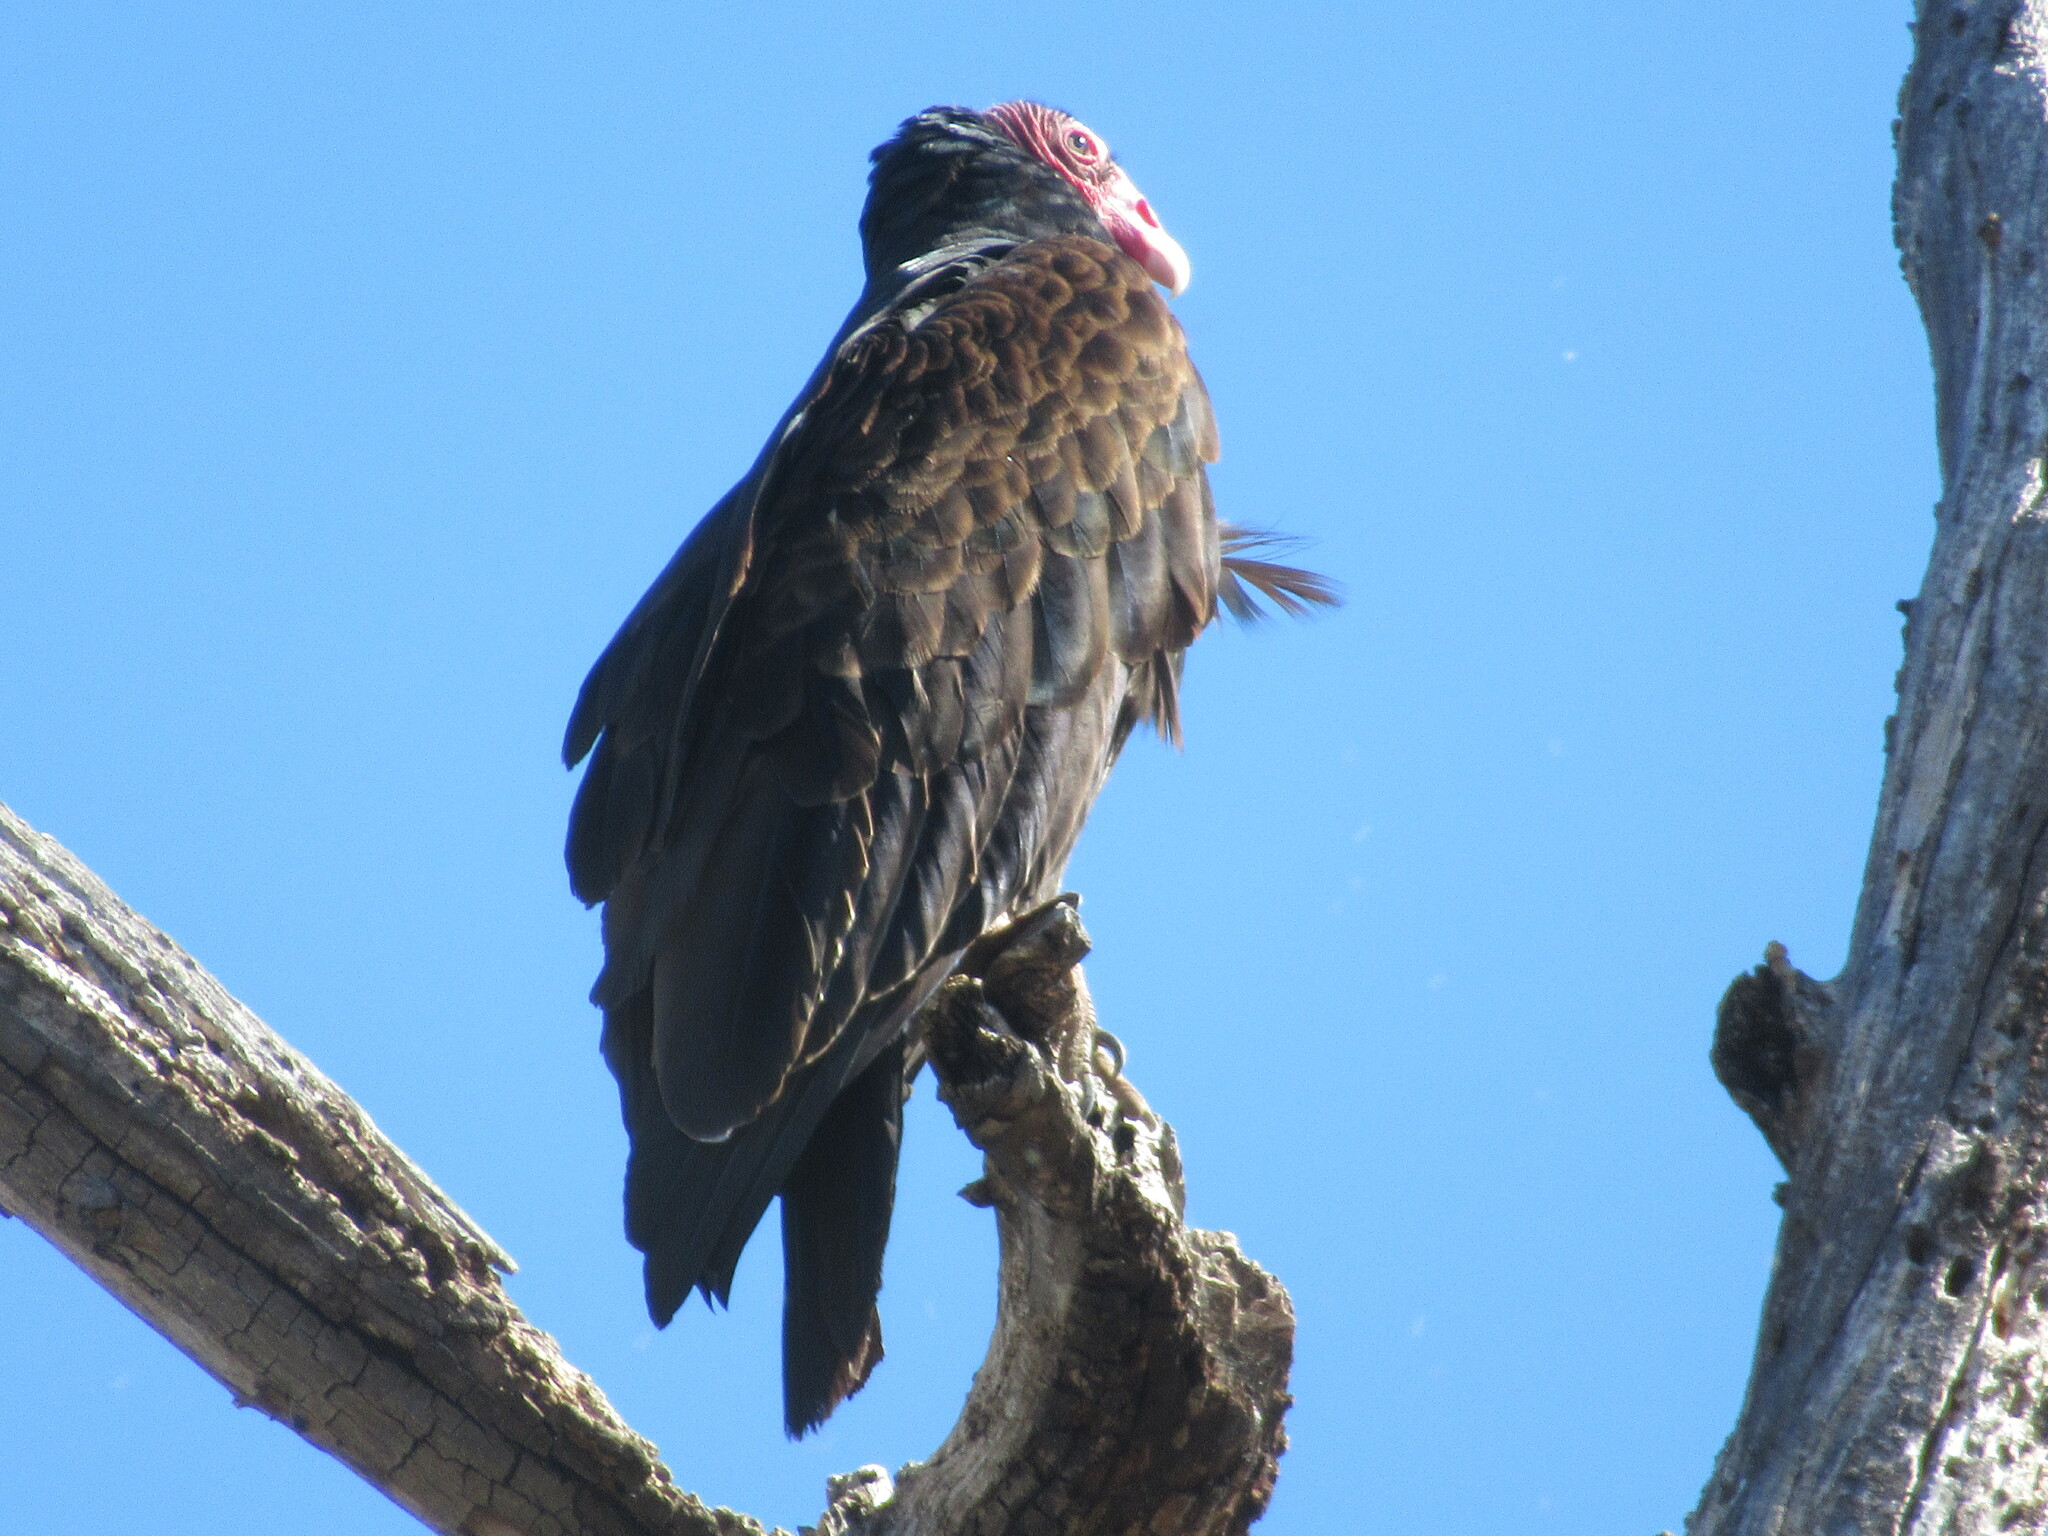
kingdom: Animalia
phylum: Chordata
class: Aves
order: Accipitriformes
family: Cathartidae
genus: Cathartes
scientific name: Cathartes aura
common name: Turkey vulture
